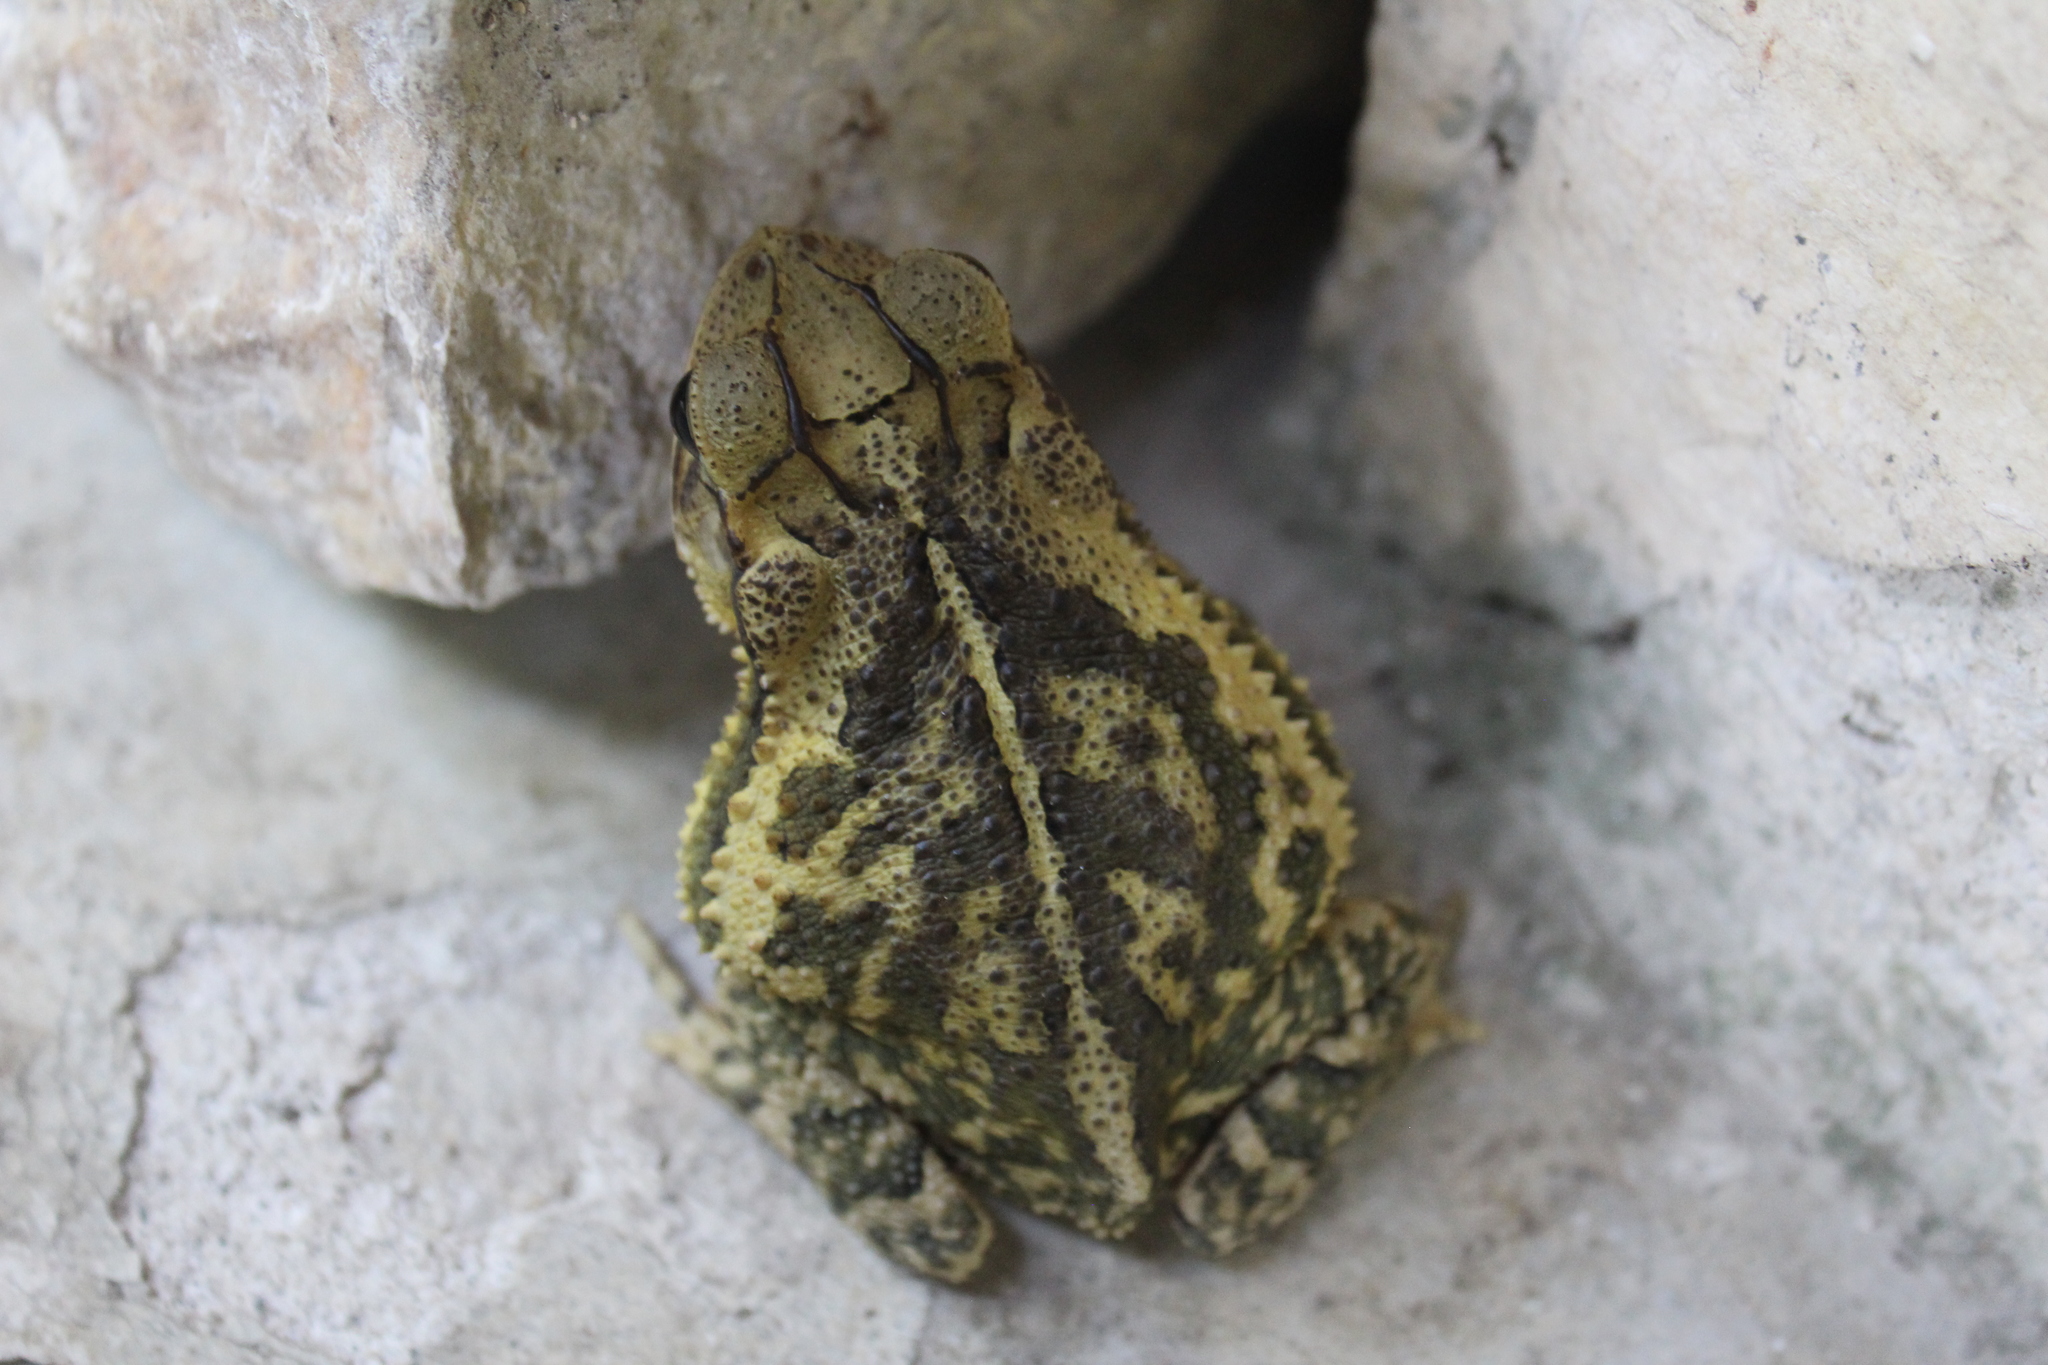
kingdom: Animalia
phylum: Chordata
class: Amphibia
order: Anura
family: Bufonidae
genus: Incilius
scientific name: Incilius valliceps
